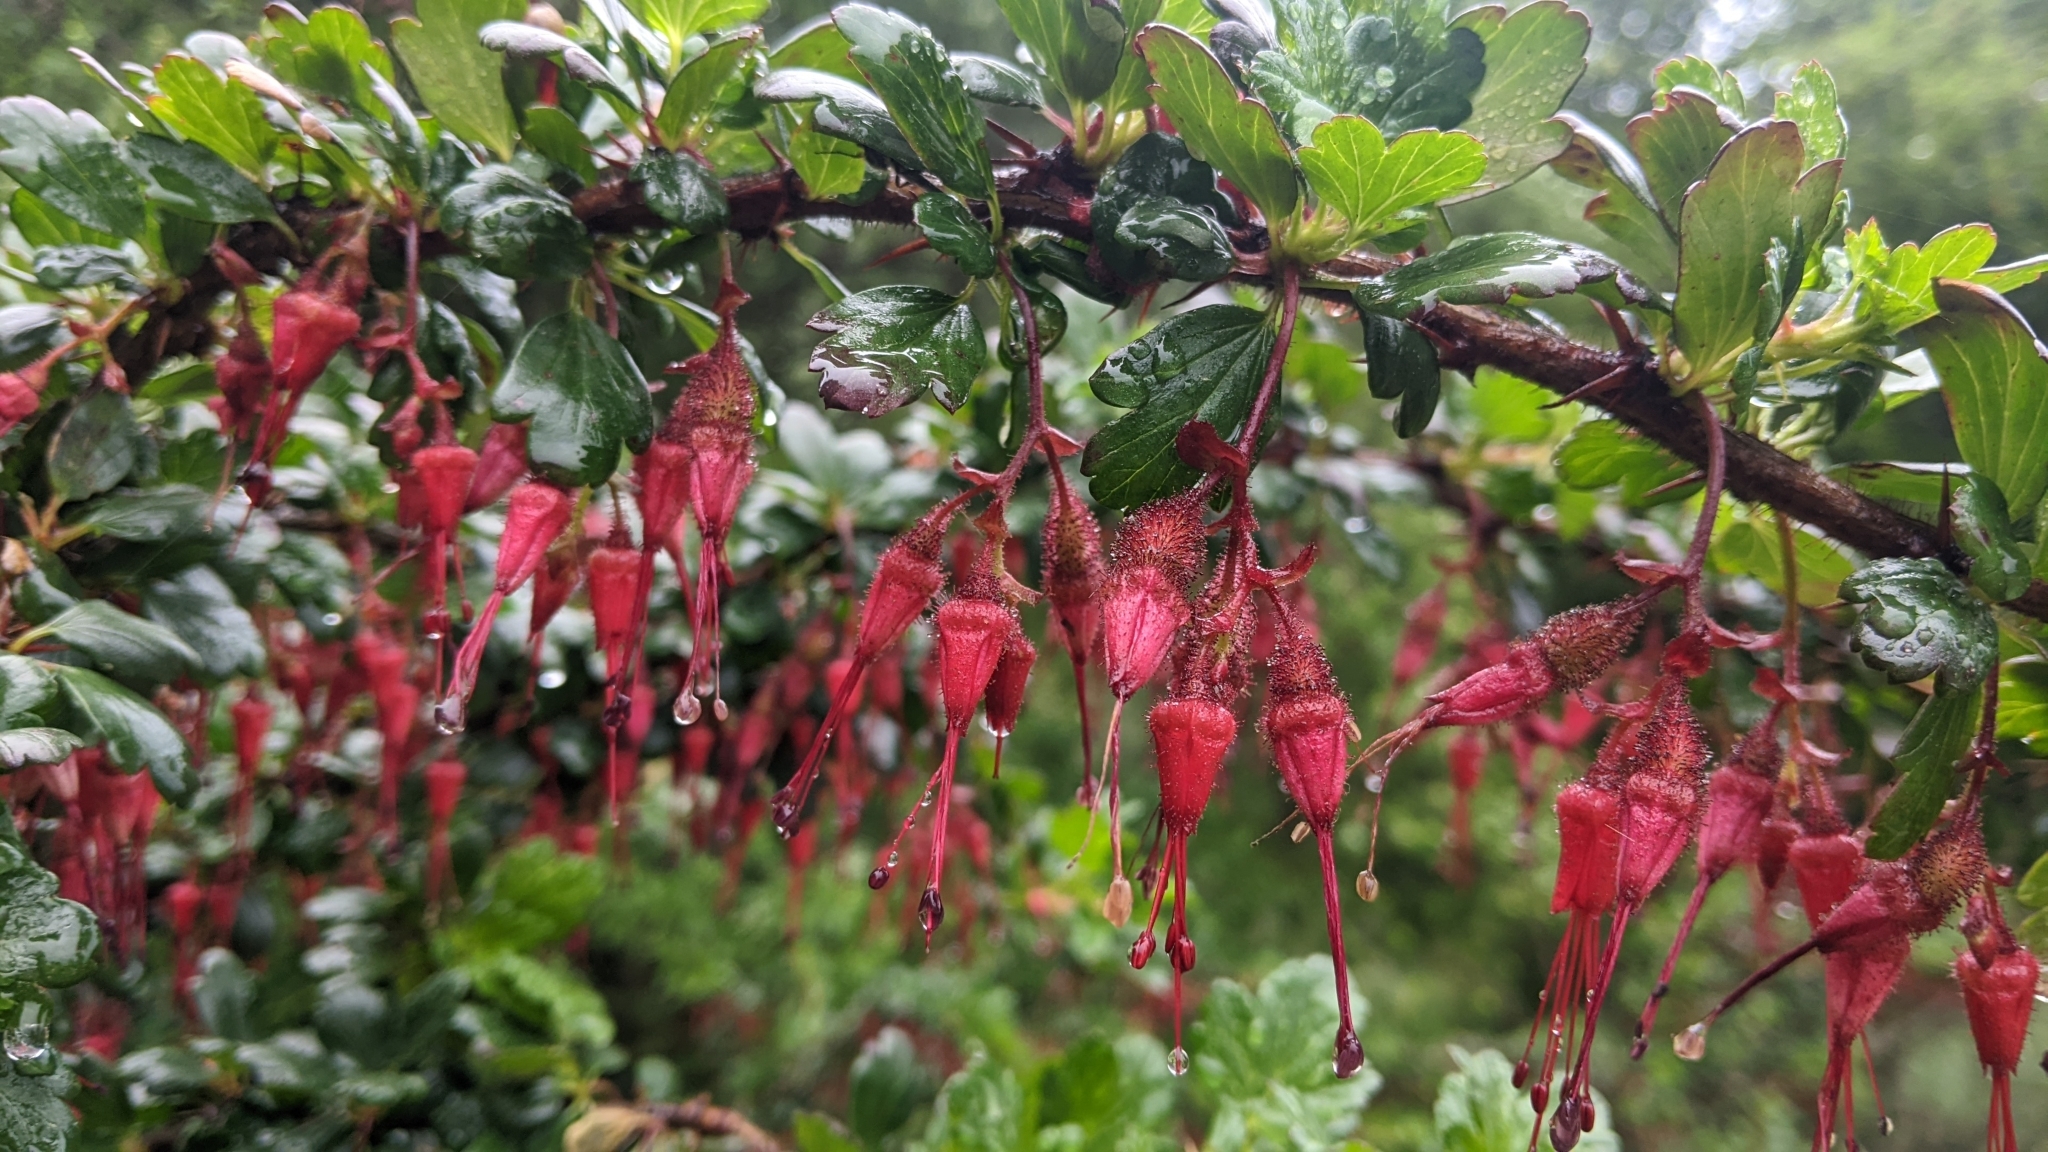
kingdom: Plantae
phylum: Tracheophyta
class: Magnoliopsida
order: Saxifragales
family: Grossulariaceae
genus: Ribes
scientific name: Ribes speciosum
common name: Fuchsia-flower gooseberry
